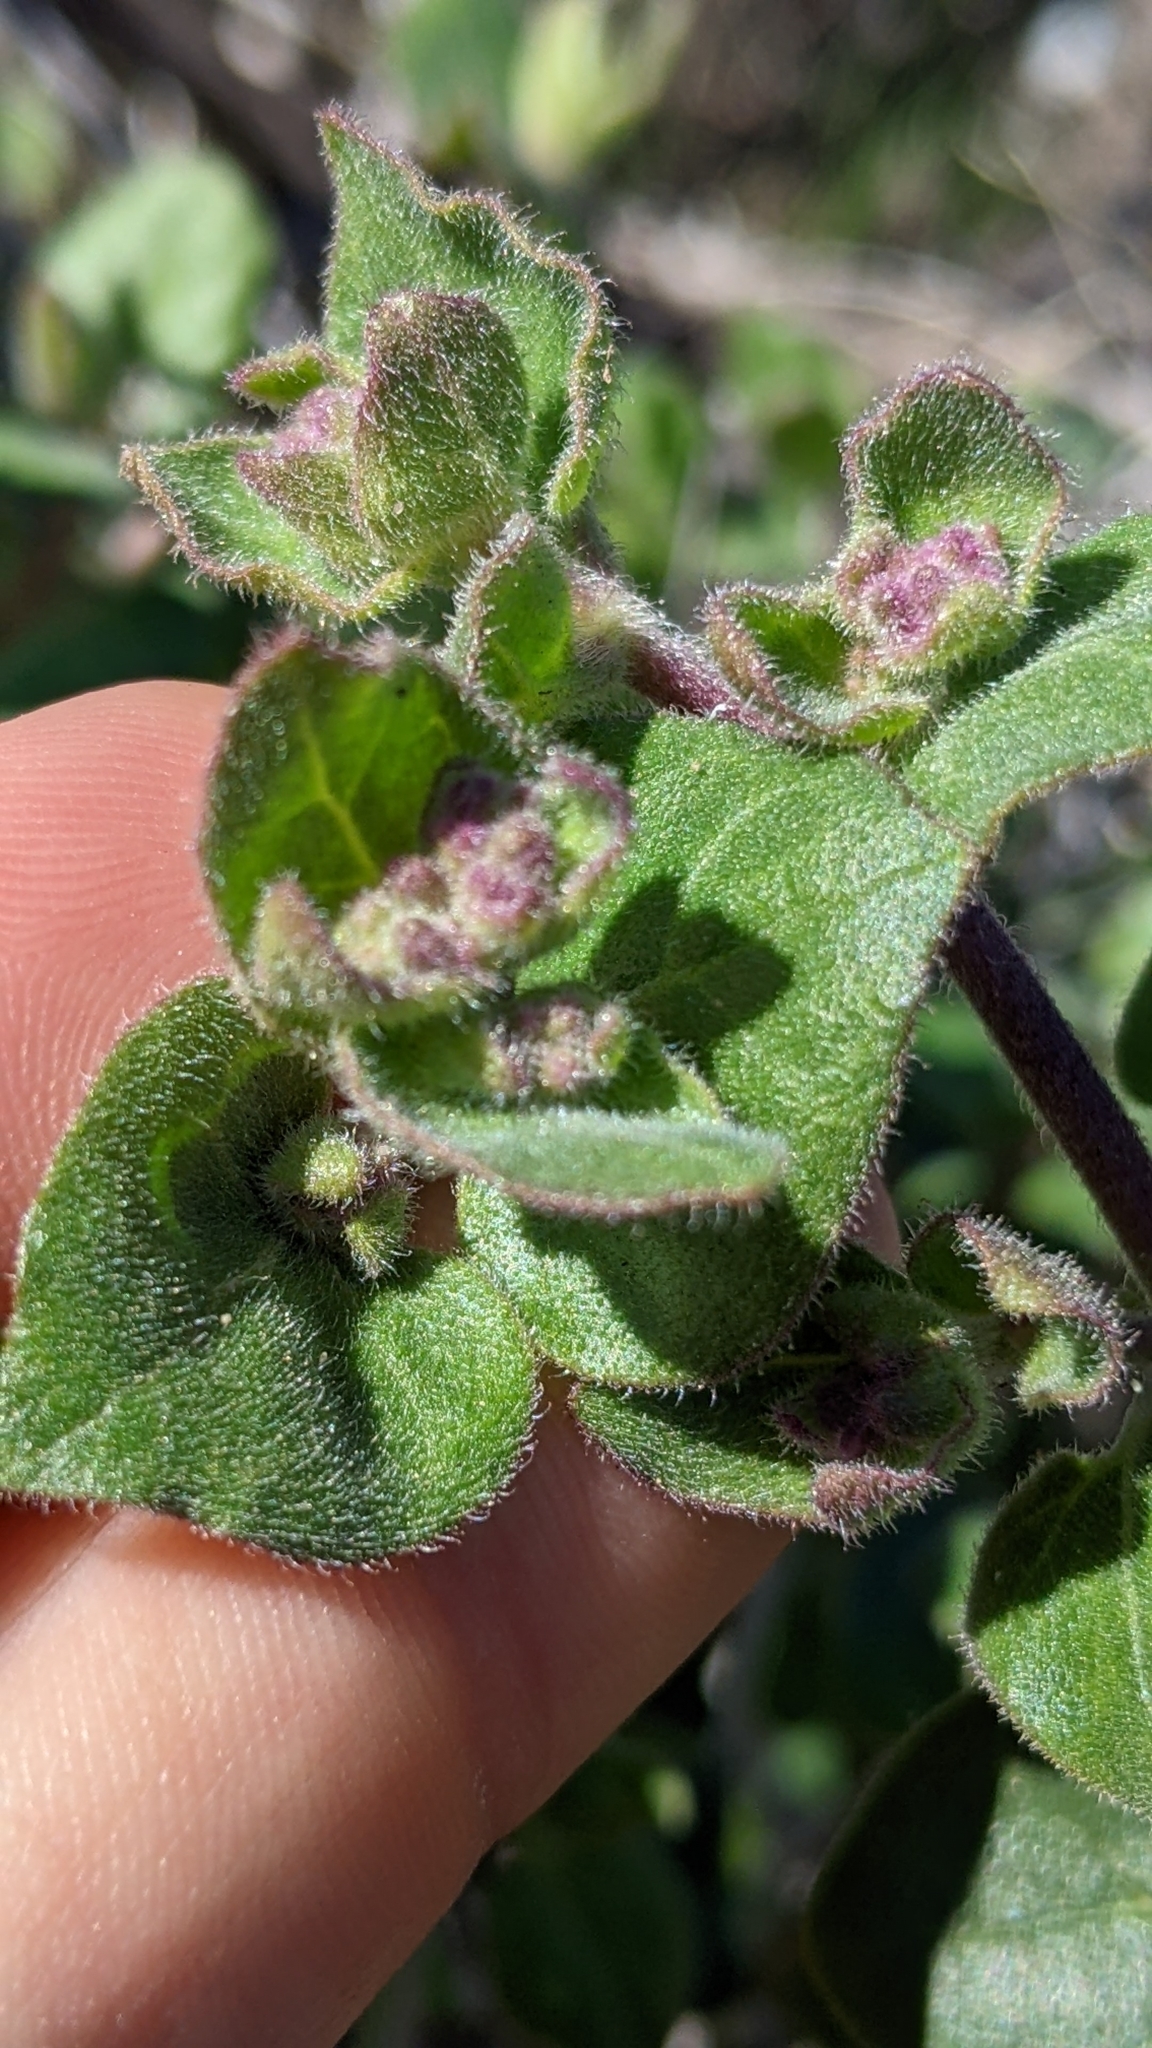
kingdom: Plantae
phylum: Tracheophyta
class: Magnoliopsida
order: Caryophyllales
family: Nyctaginaceae
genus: Mirabilis
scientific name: Mirabilis laevis
